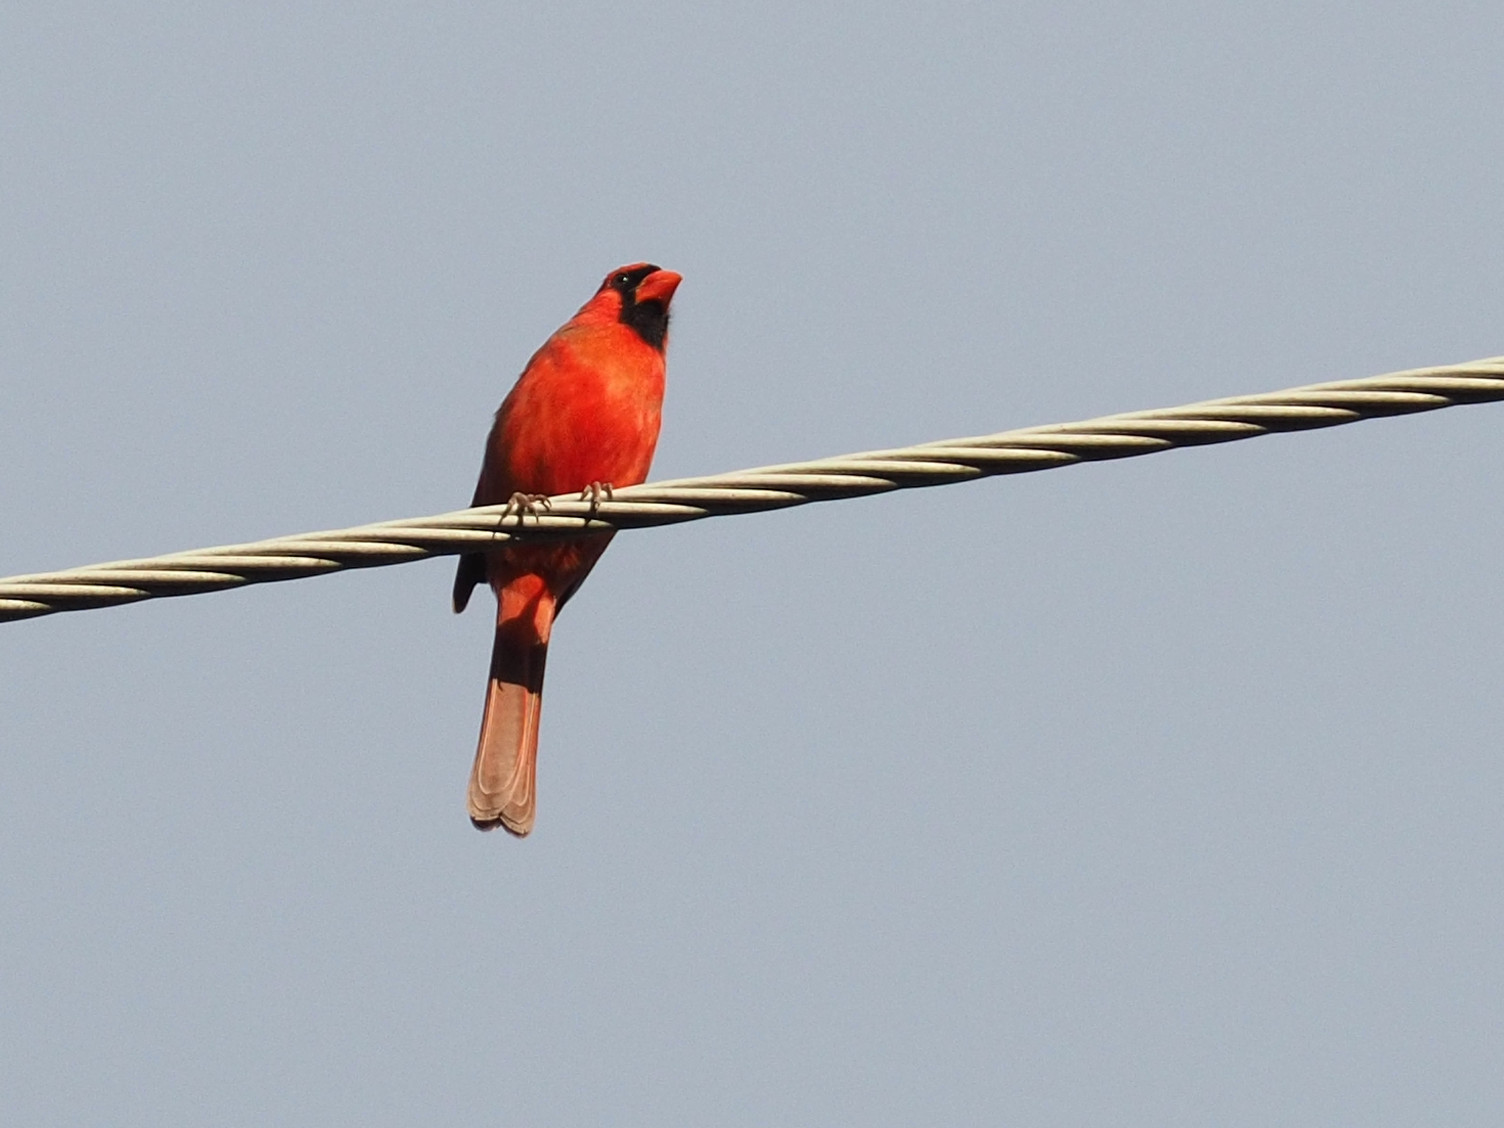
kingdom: Animalia
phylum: Chordata
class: Aves
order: Passeriformes
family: Cardinalidae
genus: Cardinalis
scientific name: Cardinalis cardinalis
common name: Northern cardinal
